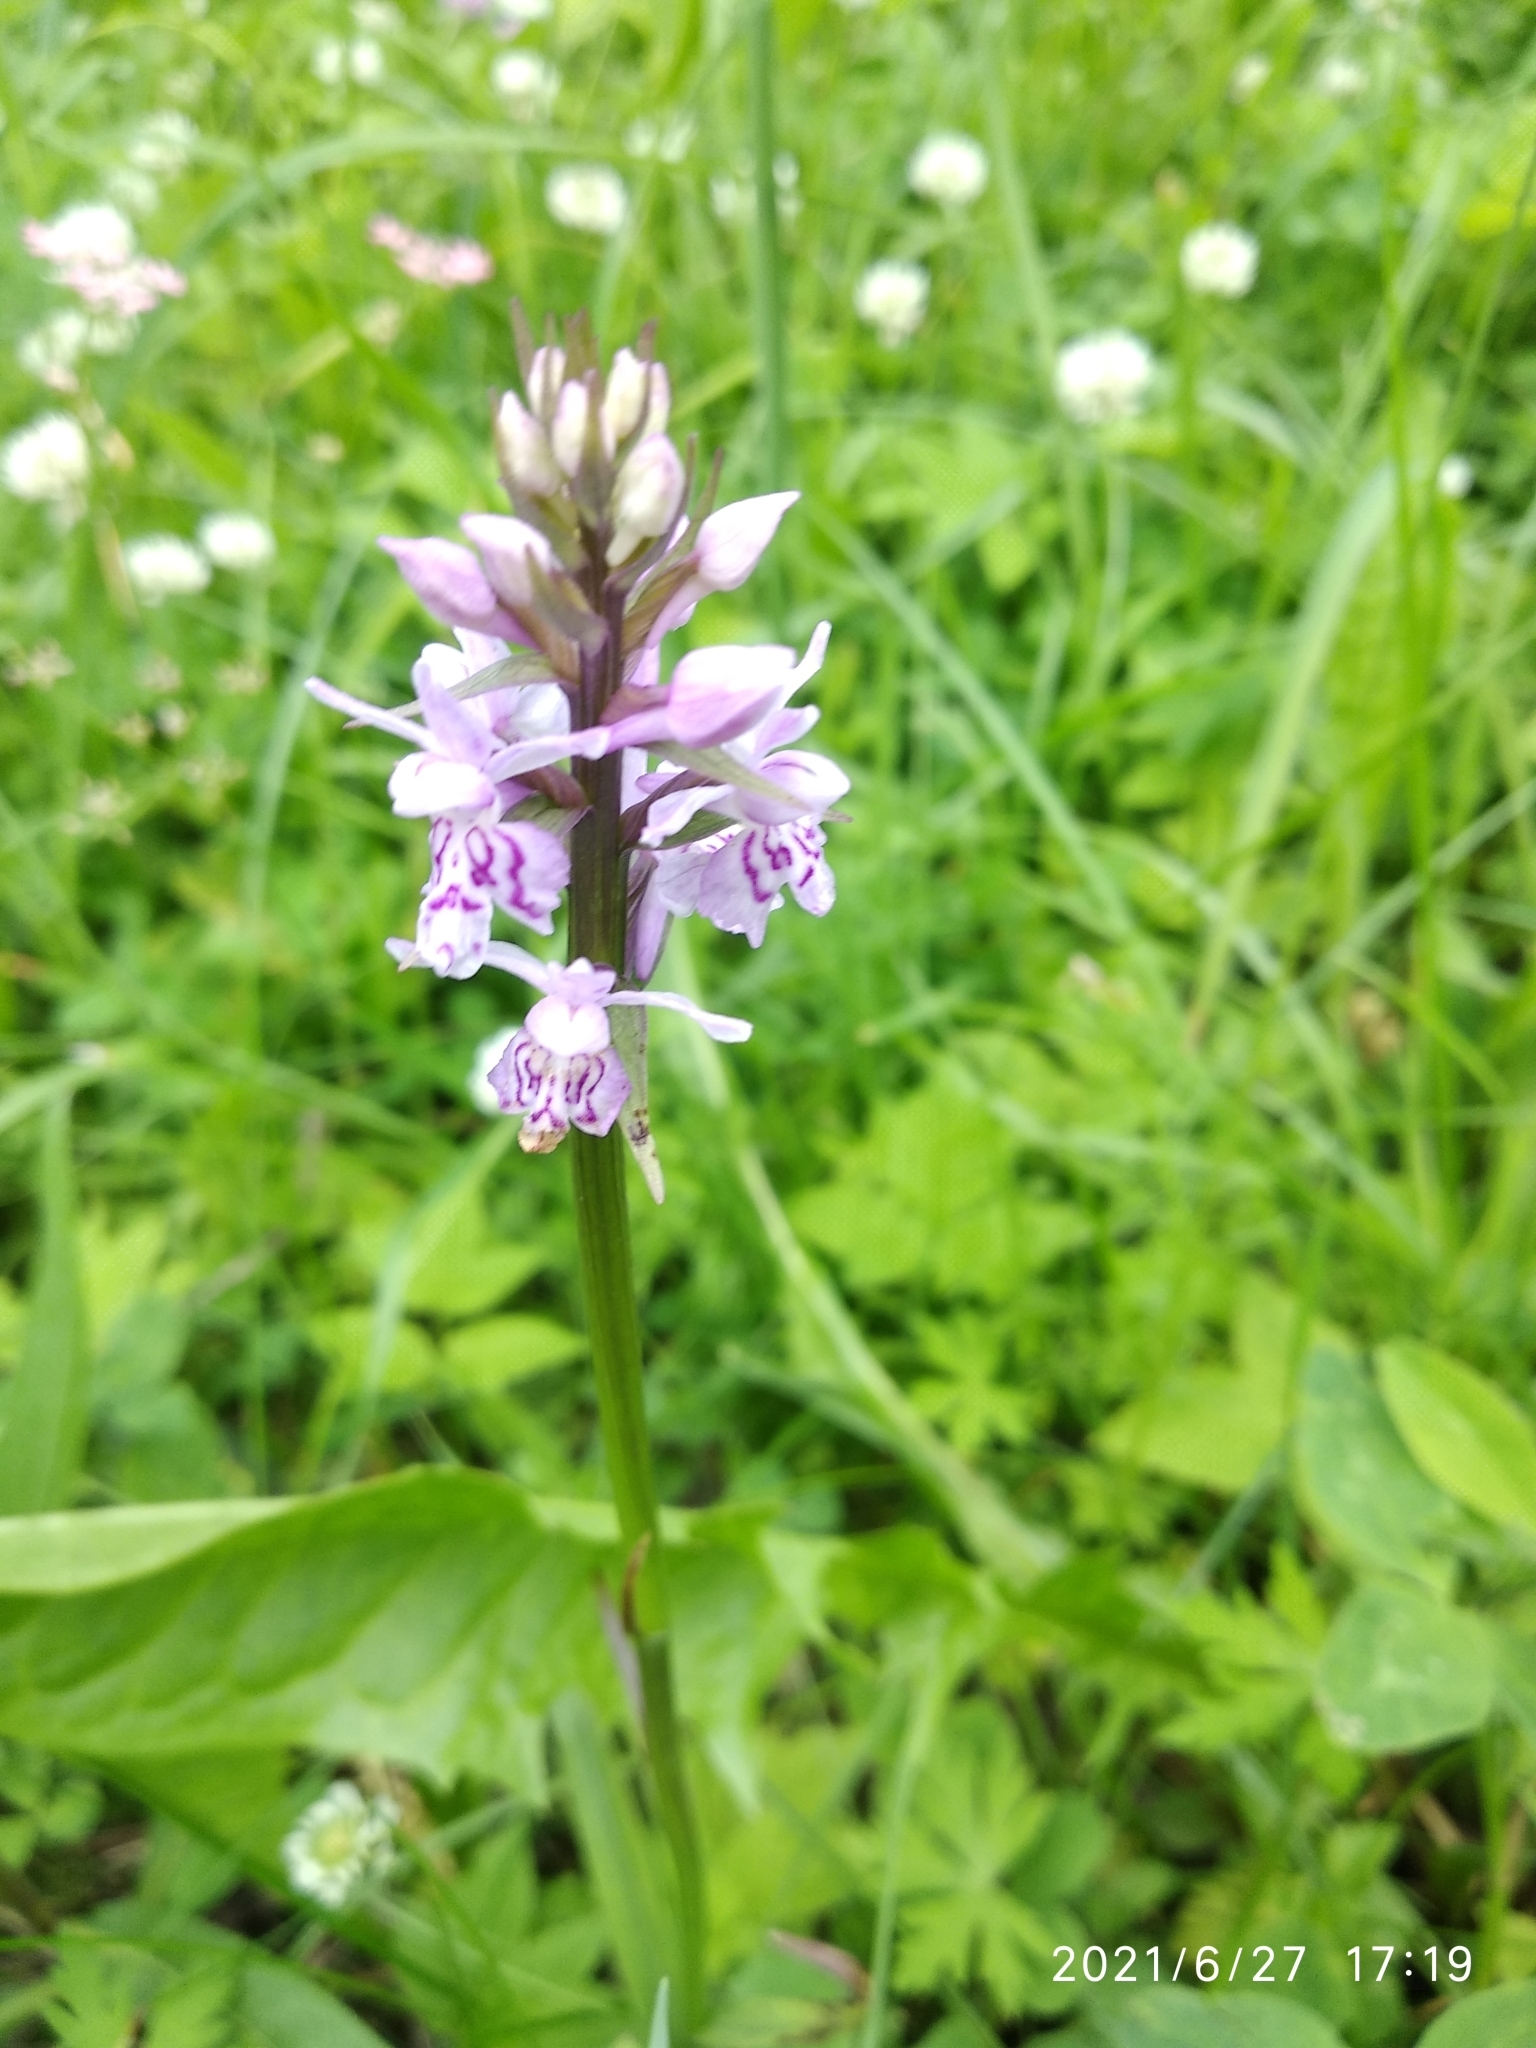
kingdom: Plantae
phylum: Tracheophyta
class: Liliopsida
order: Asparagales
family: Orchidaceae
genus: Dactylorhiza
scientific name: Dactylorhiza maculata
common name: Heath spotted-orchid
